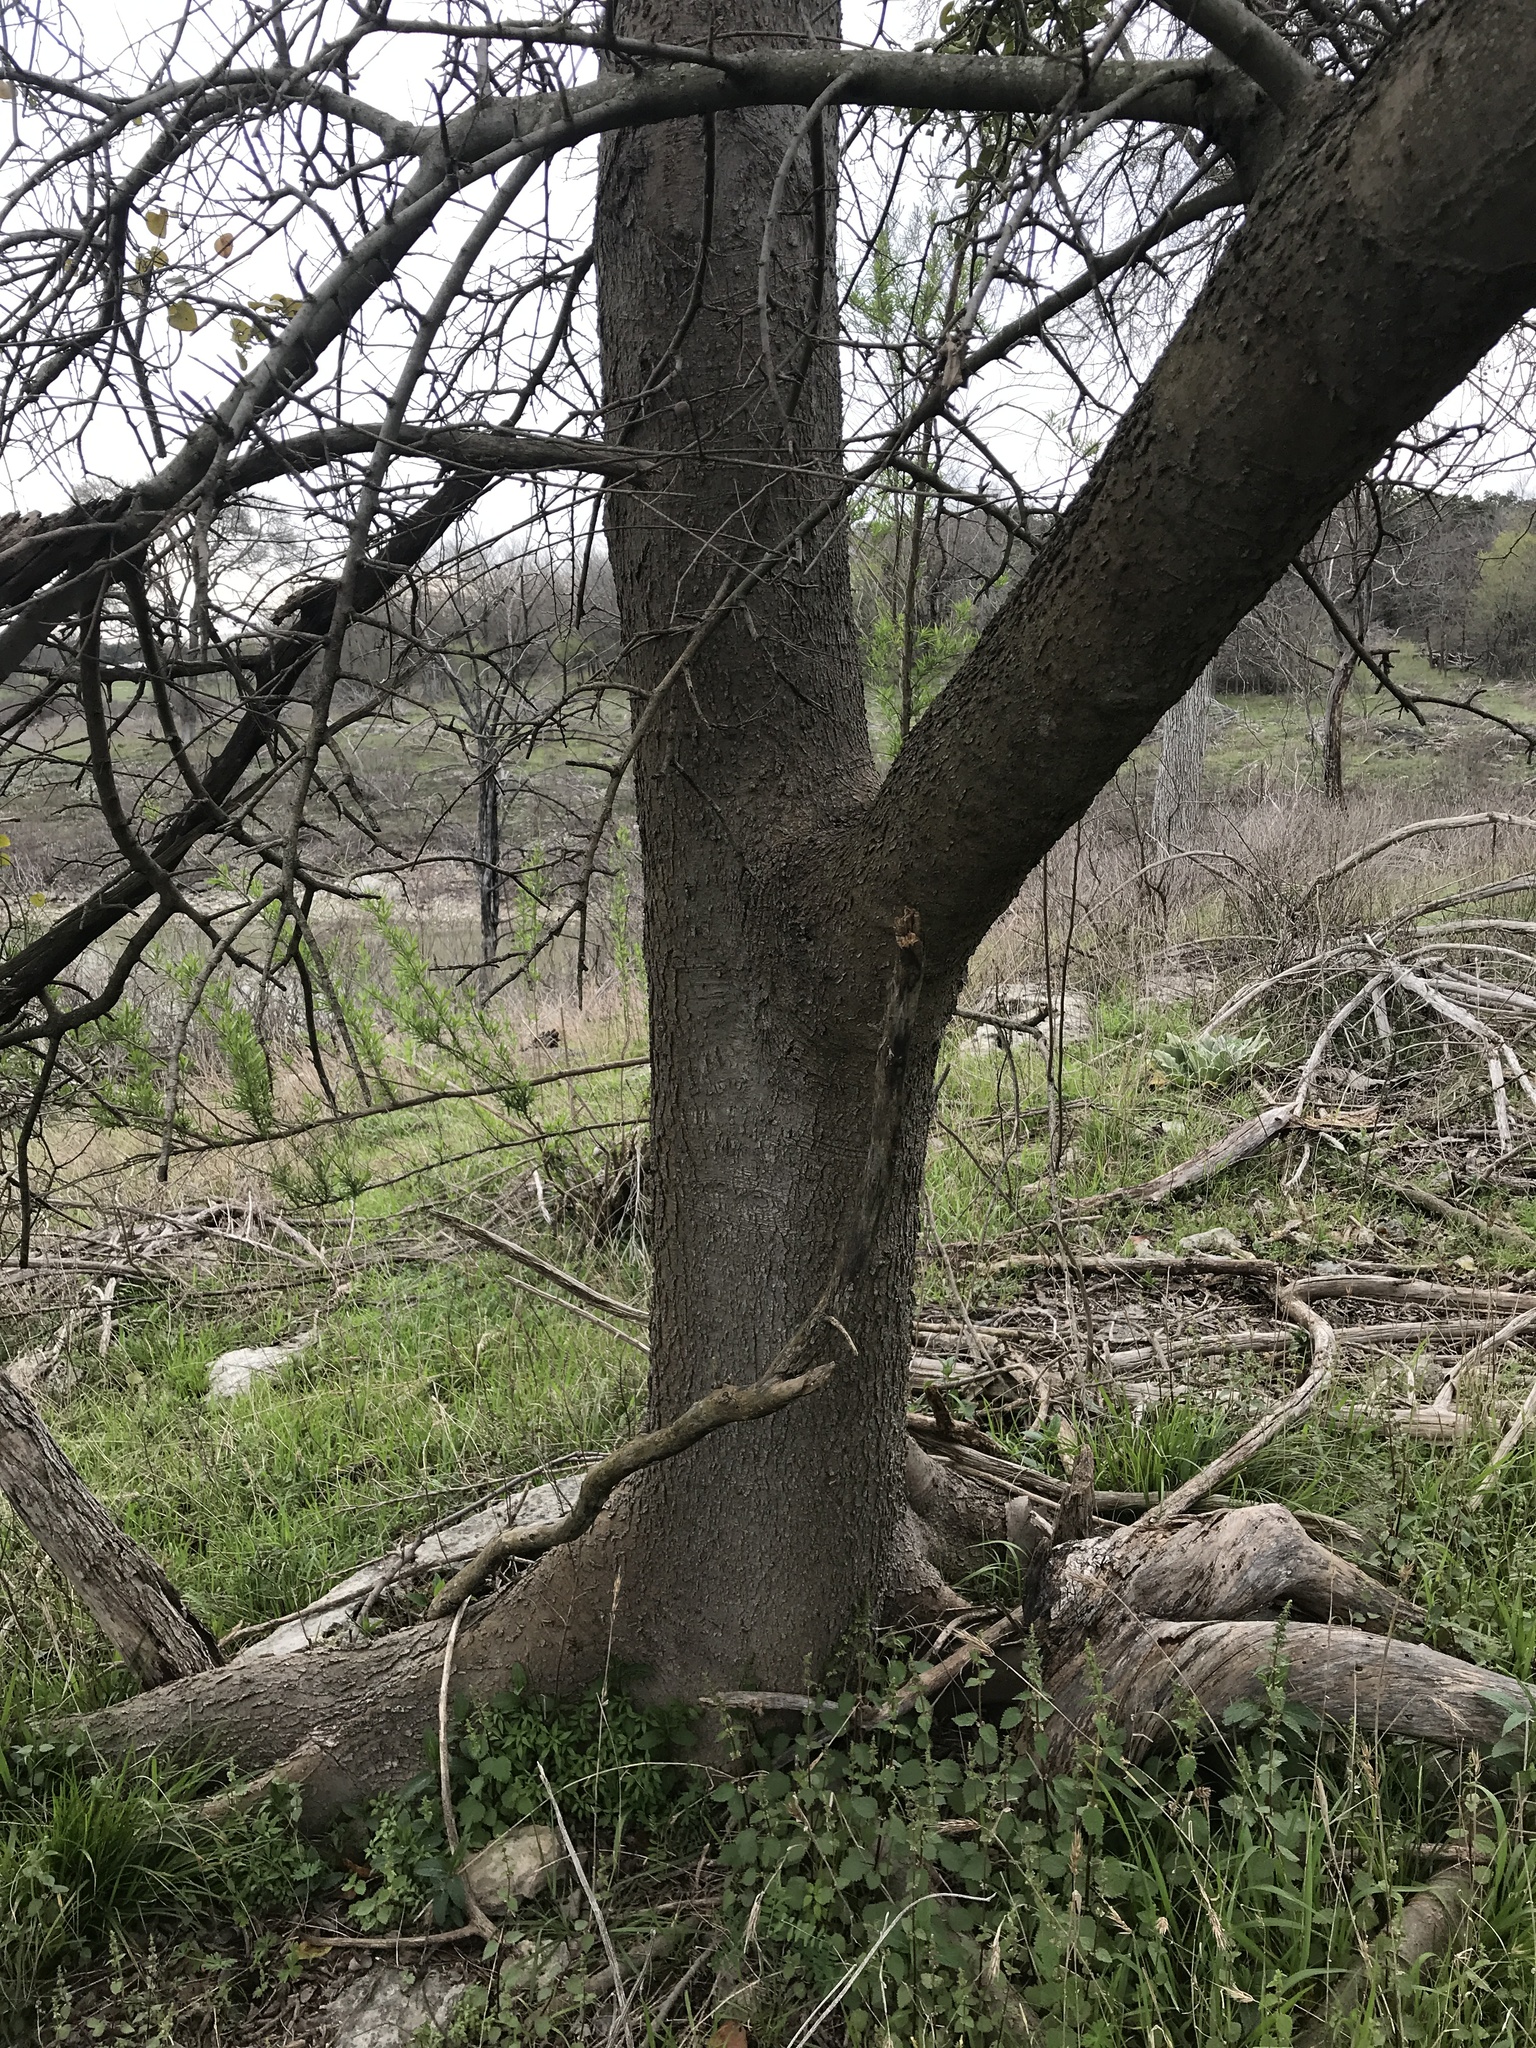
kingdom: Plantae
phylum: Tracheophyta
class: Magnoliopsida
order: Rosales
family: Cannabaceae
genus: Celtis
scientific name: Celtis laevigata
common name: Sugarberry
